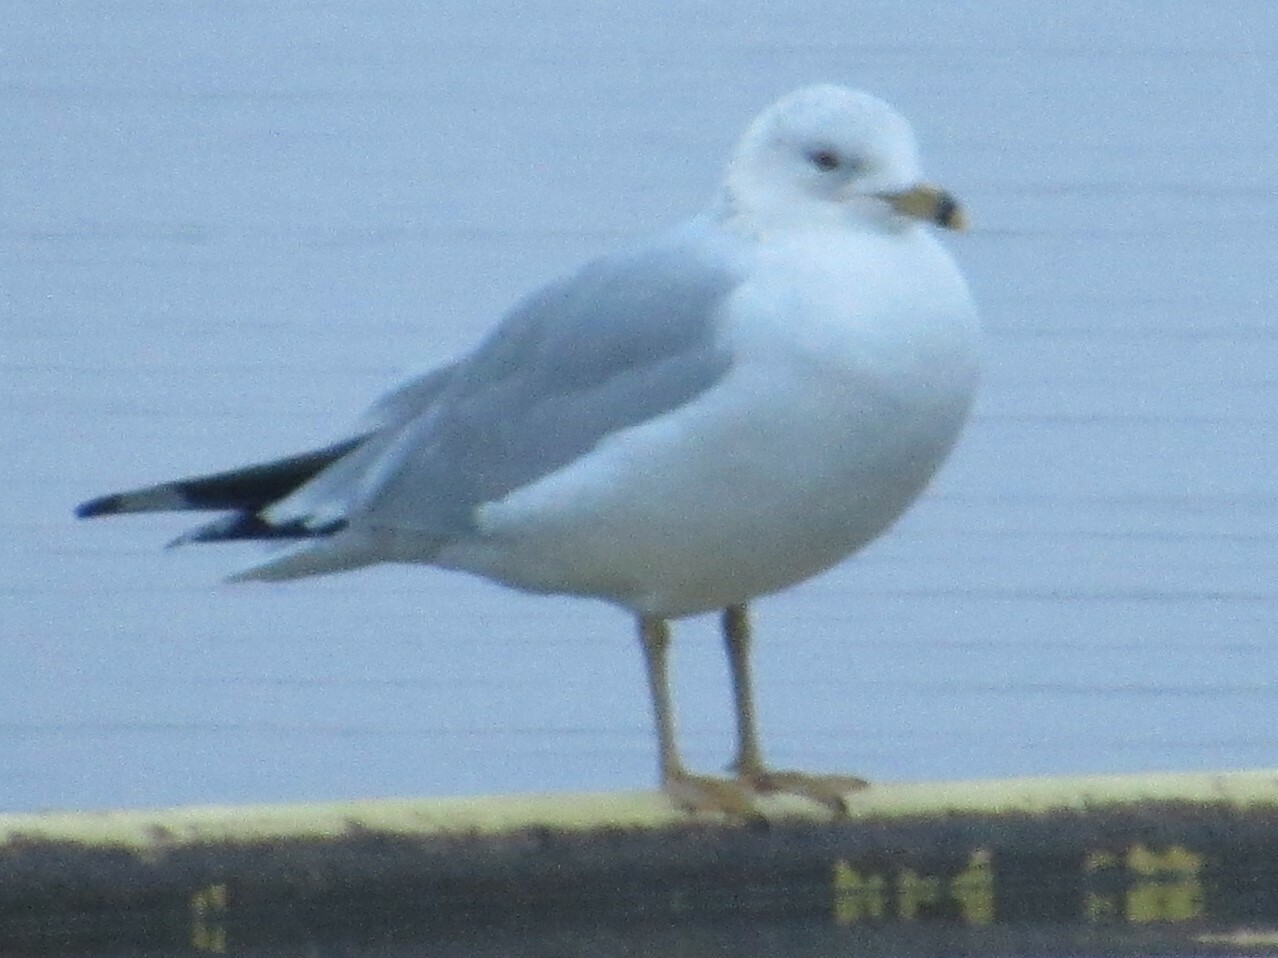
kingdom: Animalia
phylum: Chordata
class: Aves
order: Charadriiformes
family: Laridae
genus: Larus
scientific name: Larus delawarensis
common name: Ring-billed gull
